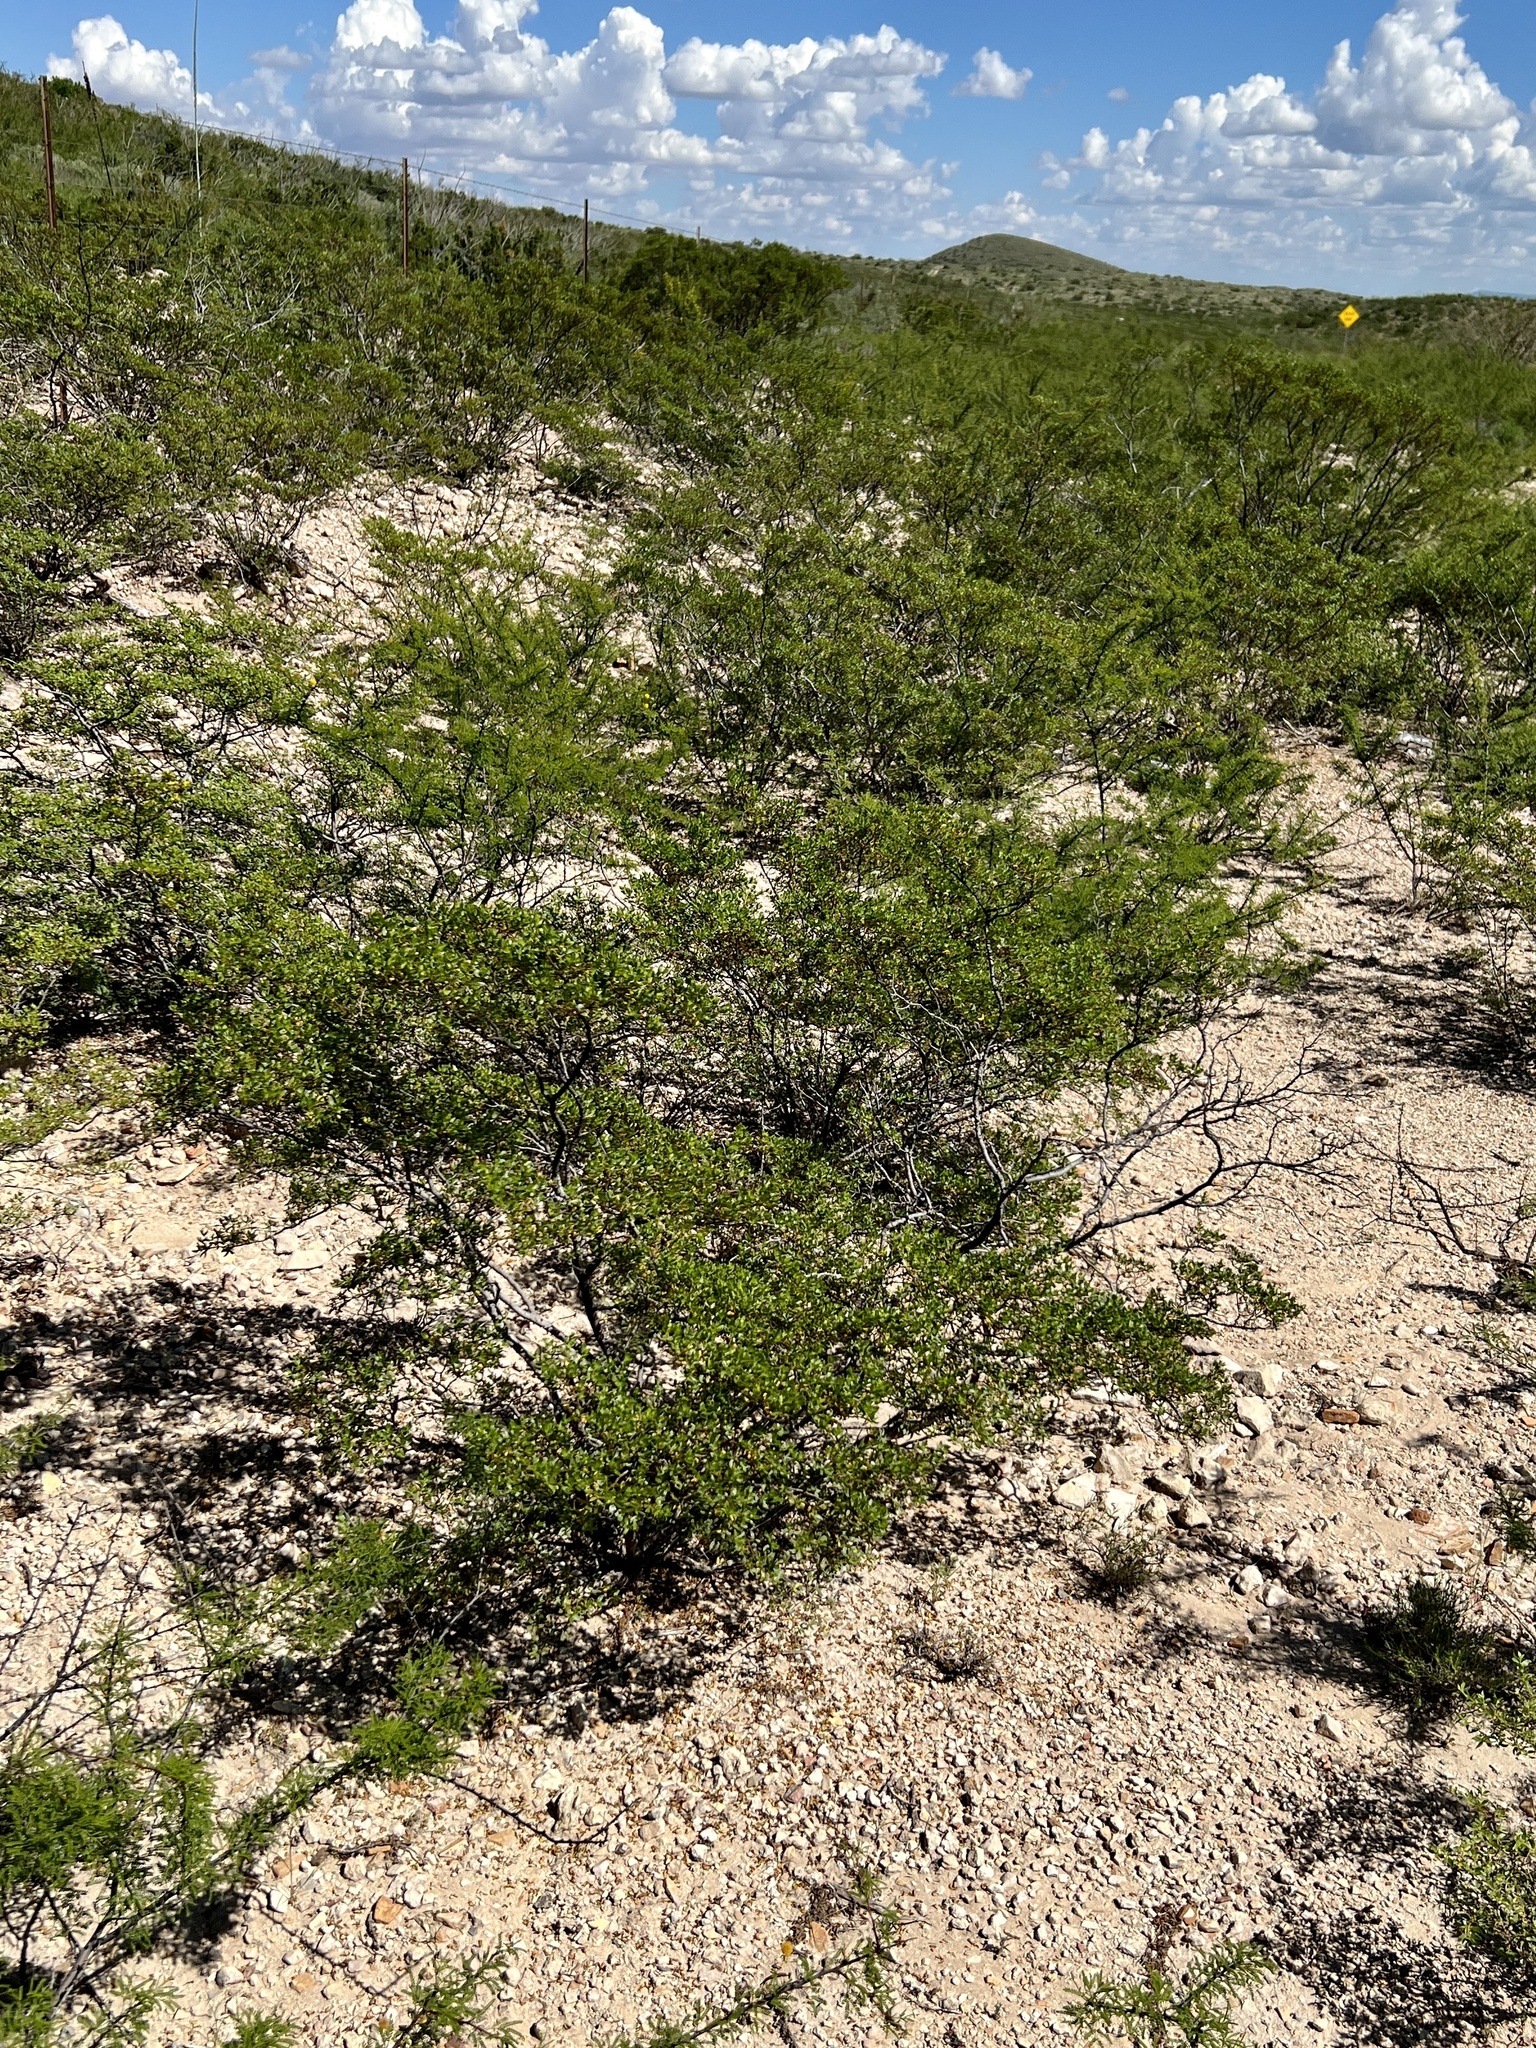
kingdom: Plantae
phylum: Tracheophyta
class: Magnoliopsida
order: Zygophyllales
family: Zygophyllaceae
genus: Larrea
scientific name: Larrea tridentata
